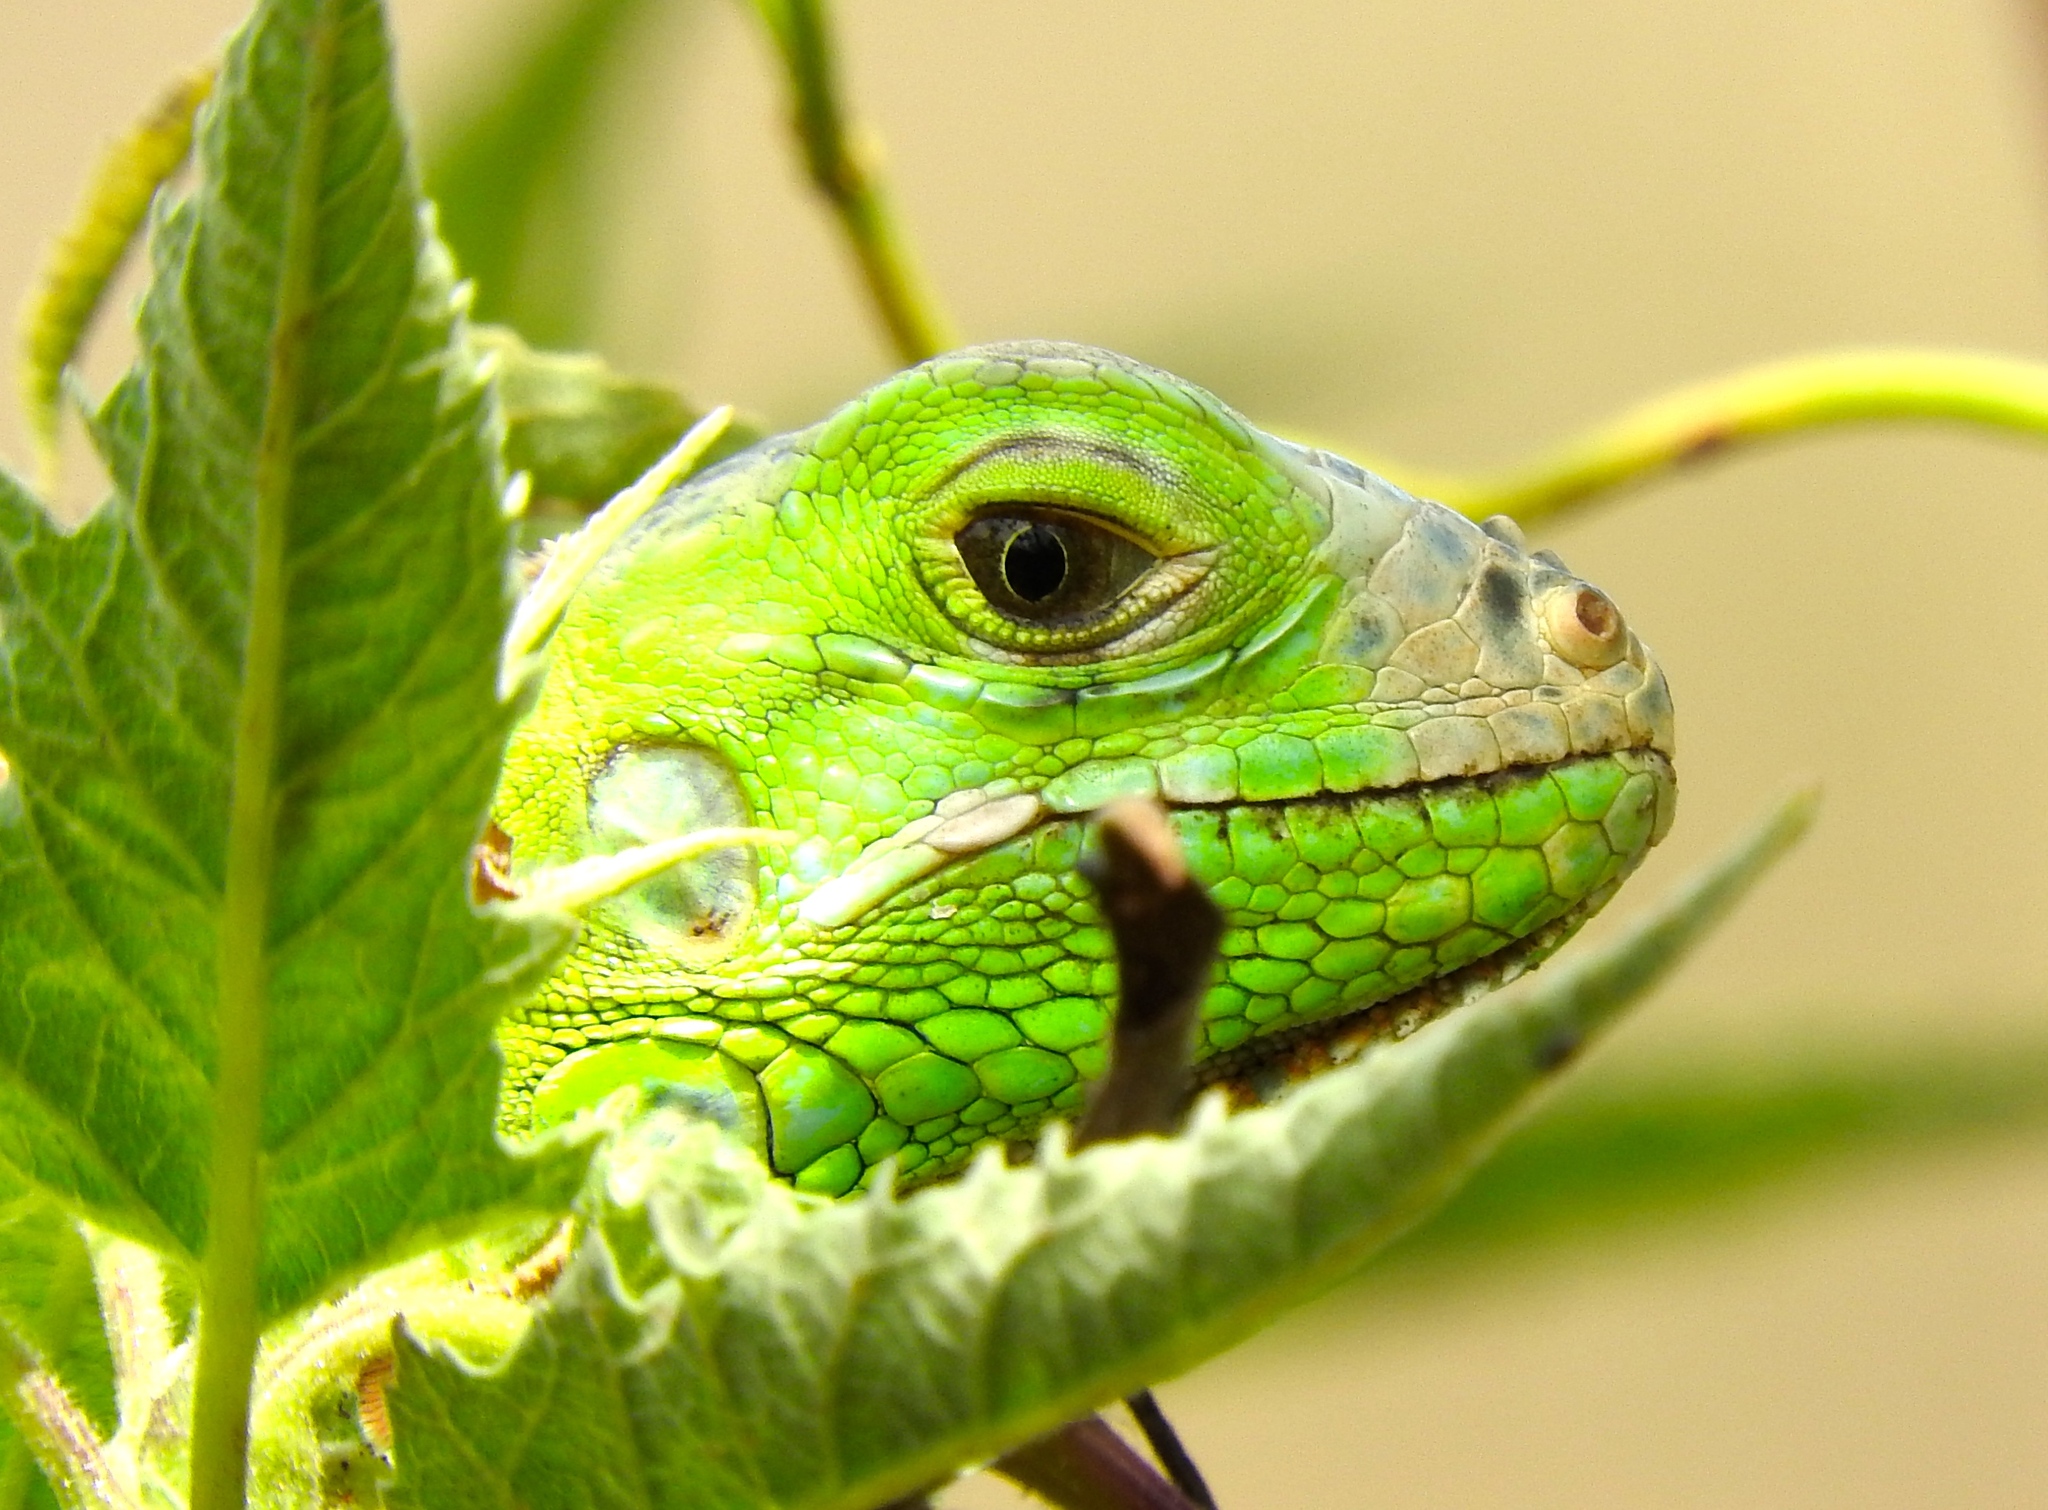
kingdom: Animalia
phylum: Chordata
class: Squamata
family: Iguanidae
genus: Iguana
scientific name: Iguana iguana
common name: Green iguana
